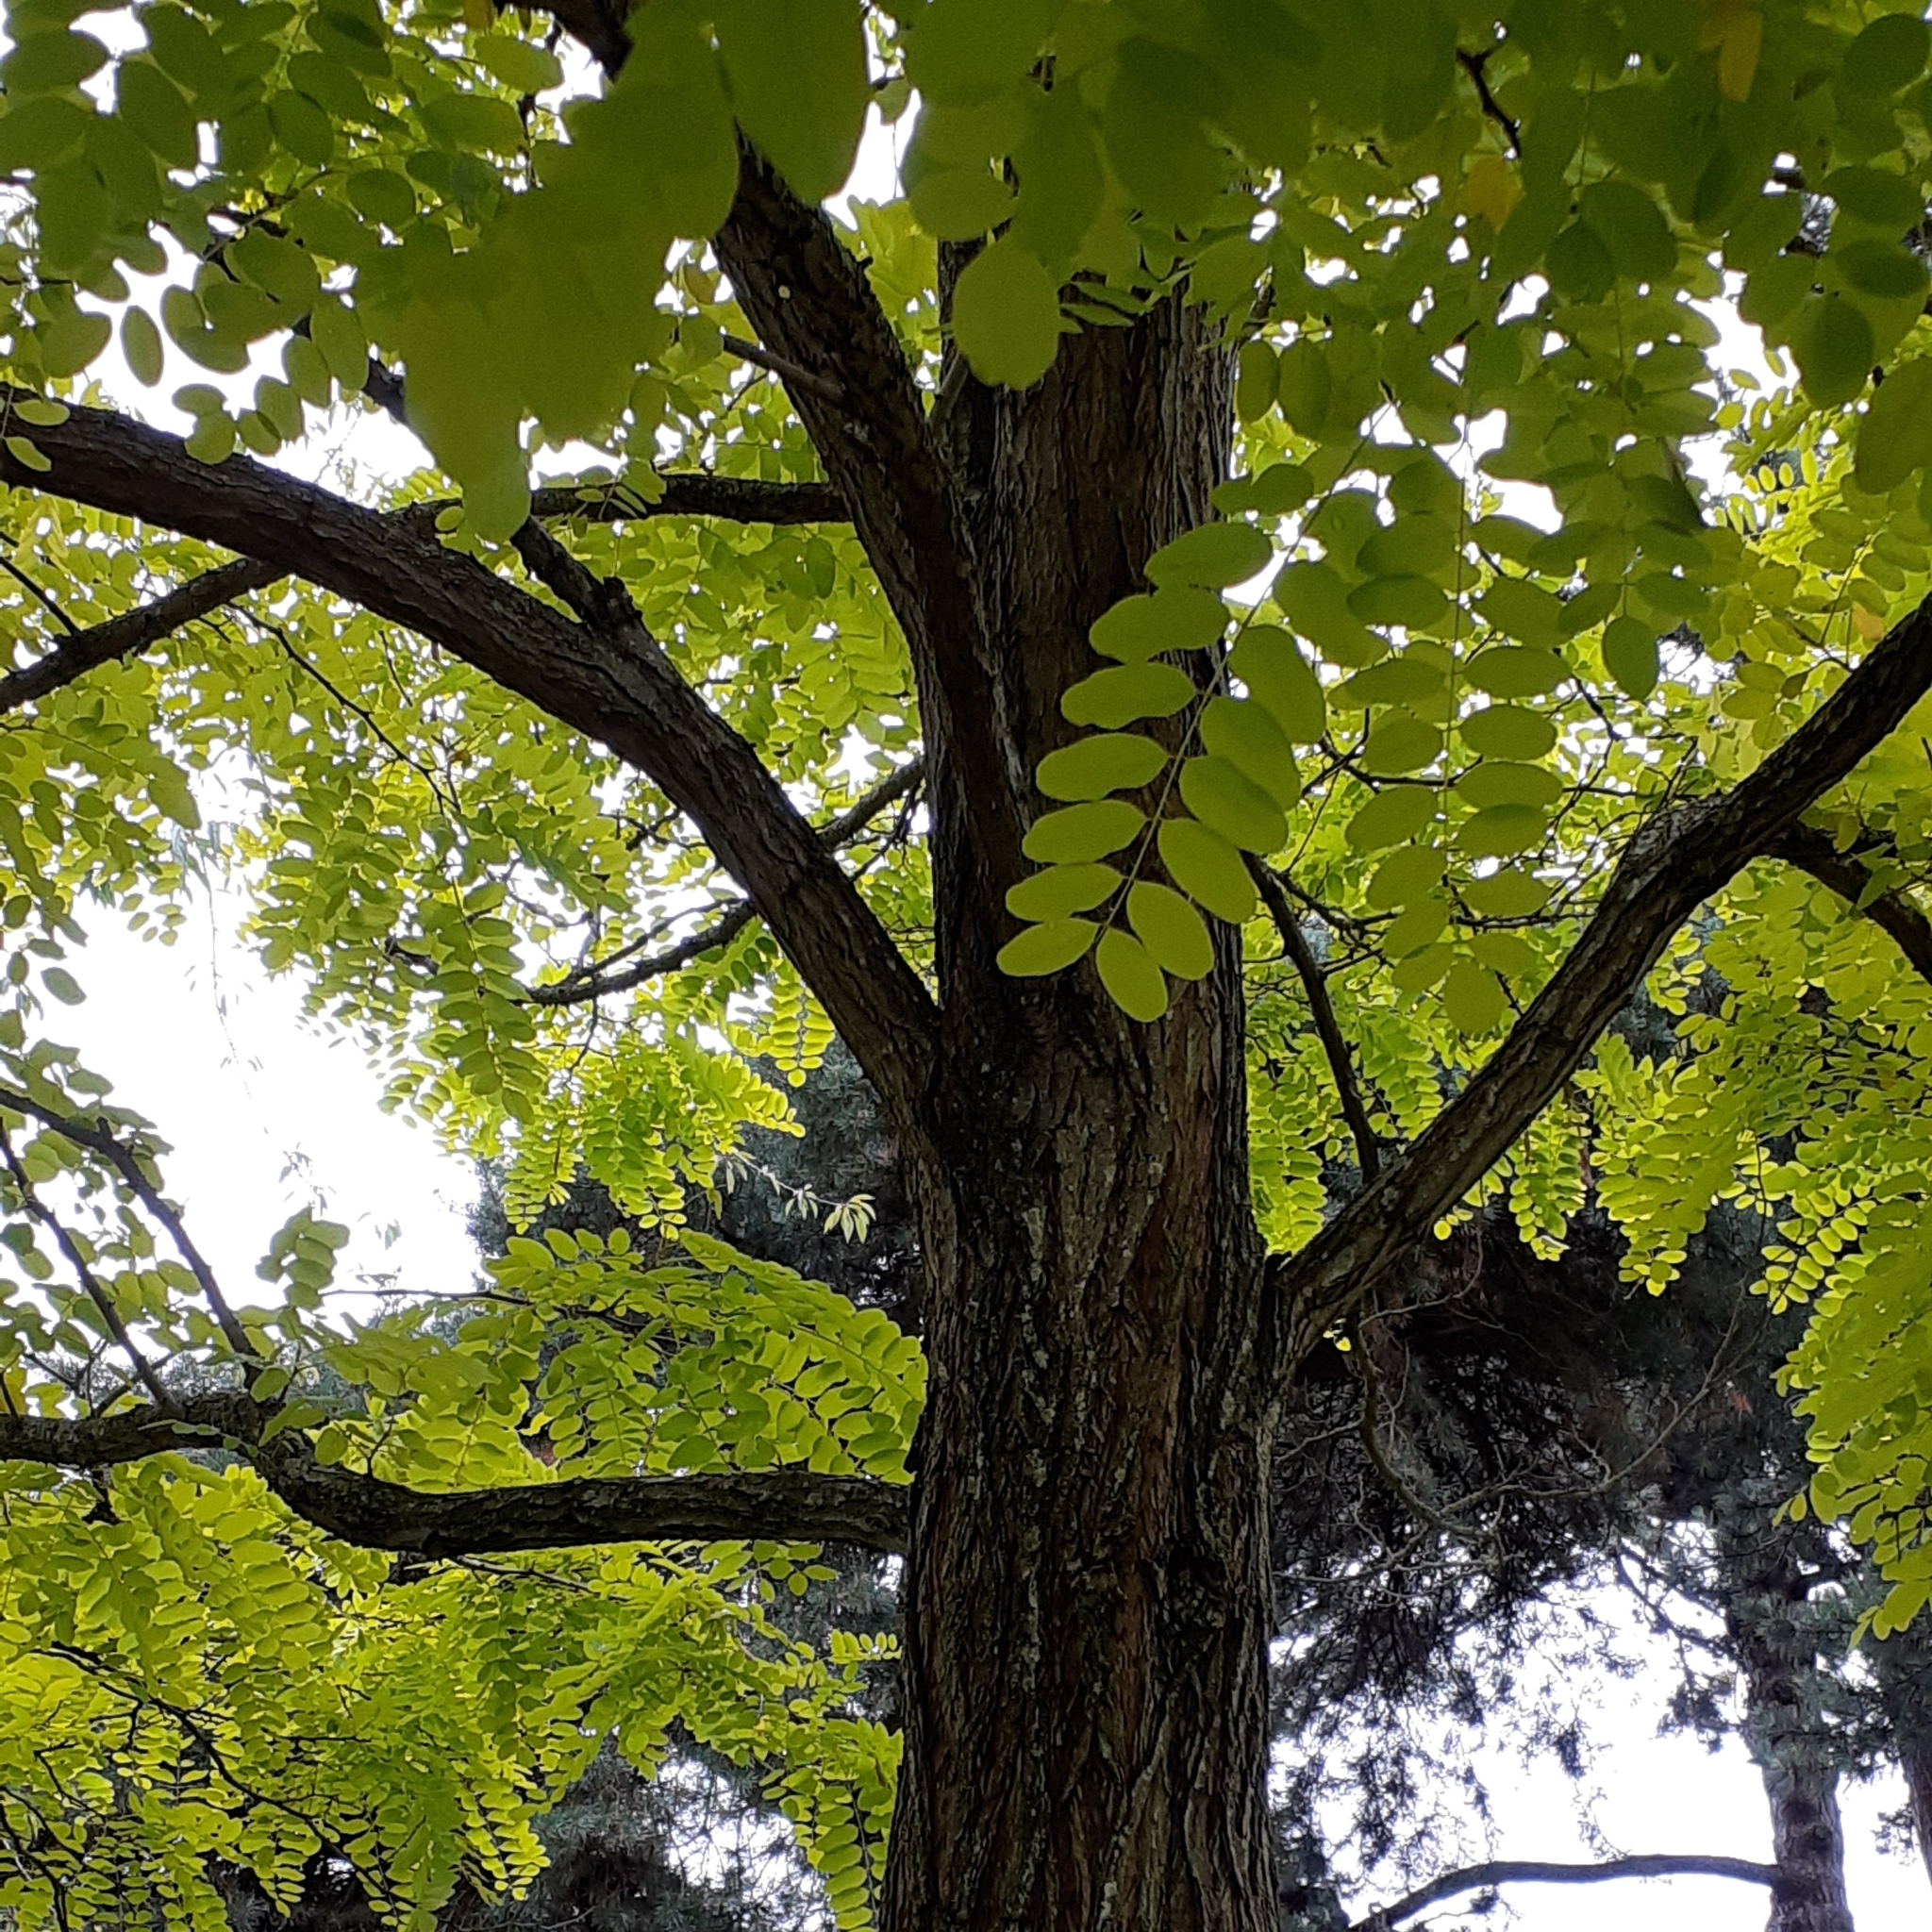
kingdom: Plantae
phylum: Tracheophyta
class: Magnoliopsida
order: Fabales
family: Fabaceae
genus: Robinia
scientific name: Robinia pseudoacacia
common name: Black locust
